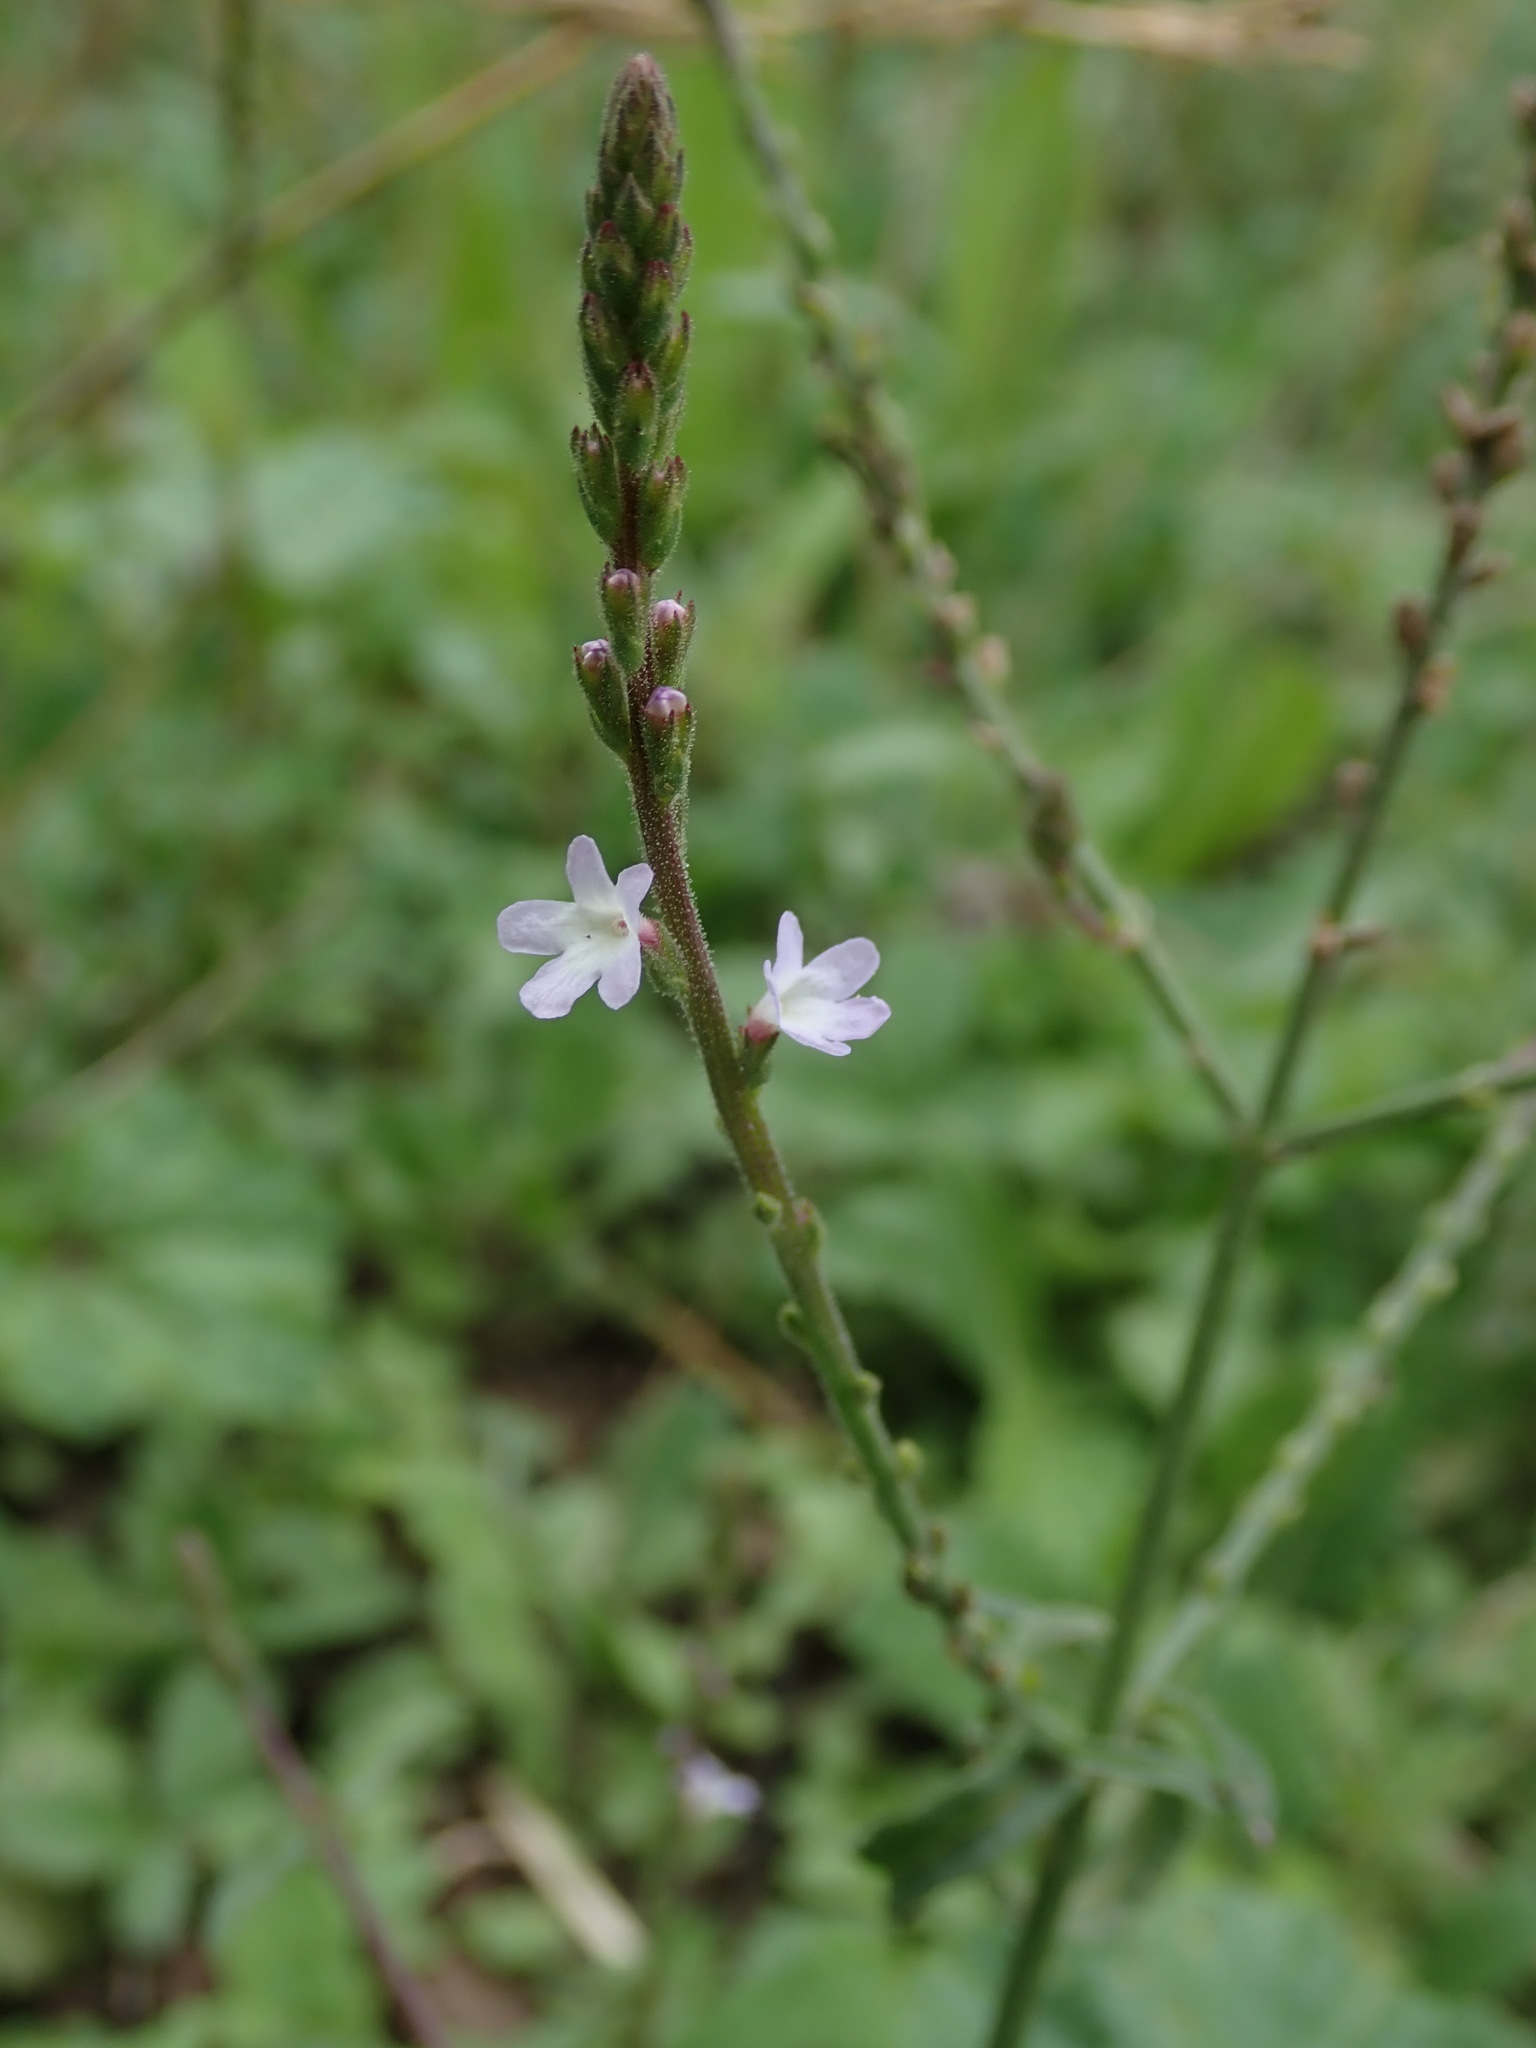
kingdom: Plantae
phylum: Tracheophyta
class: Magnoliopsida
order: Lamiales
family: Verbenaceae
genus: Verbena
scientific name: Verbena officinalis
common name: Vervain
